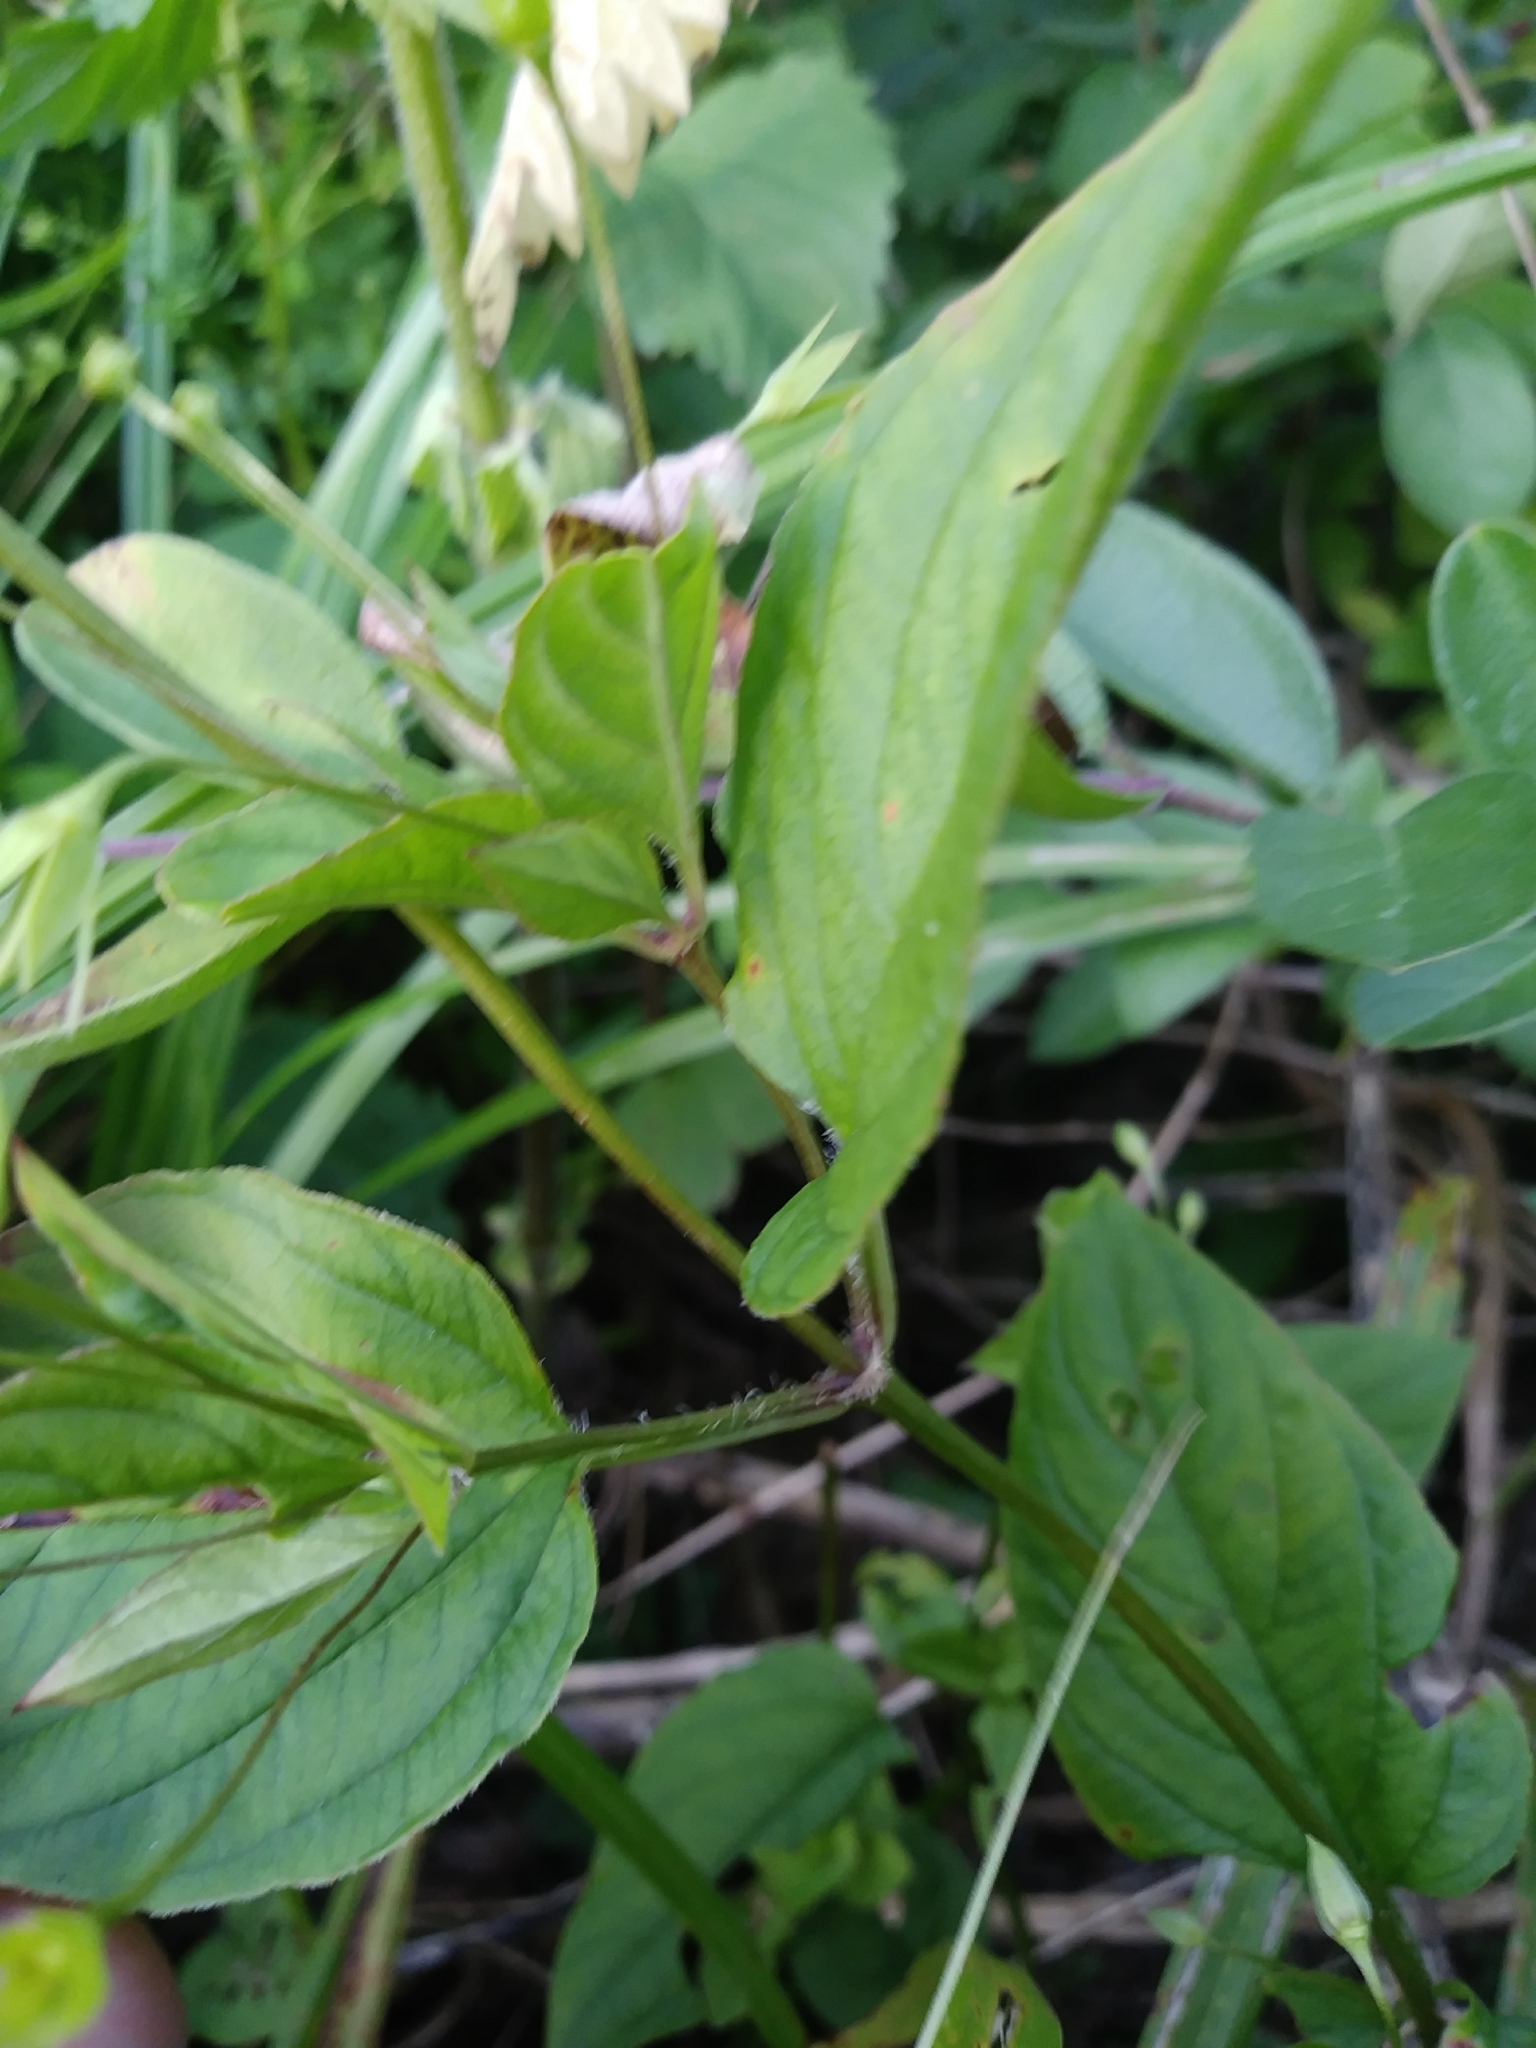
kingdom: Plantae
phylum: Tracheophyta
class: Magnoliopsida
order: Ericales
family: Primulaceae
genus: Lysimachia
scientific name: Lysimachia ciliata
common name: Fringed loosestrife
